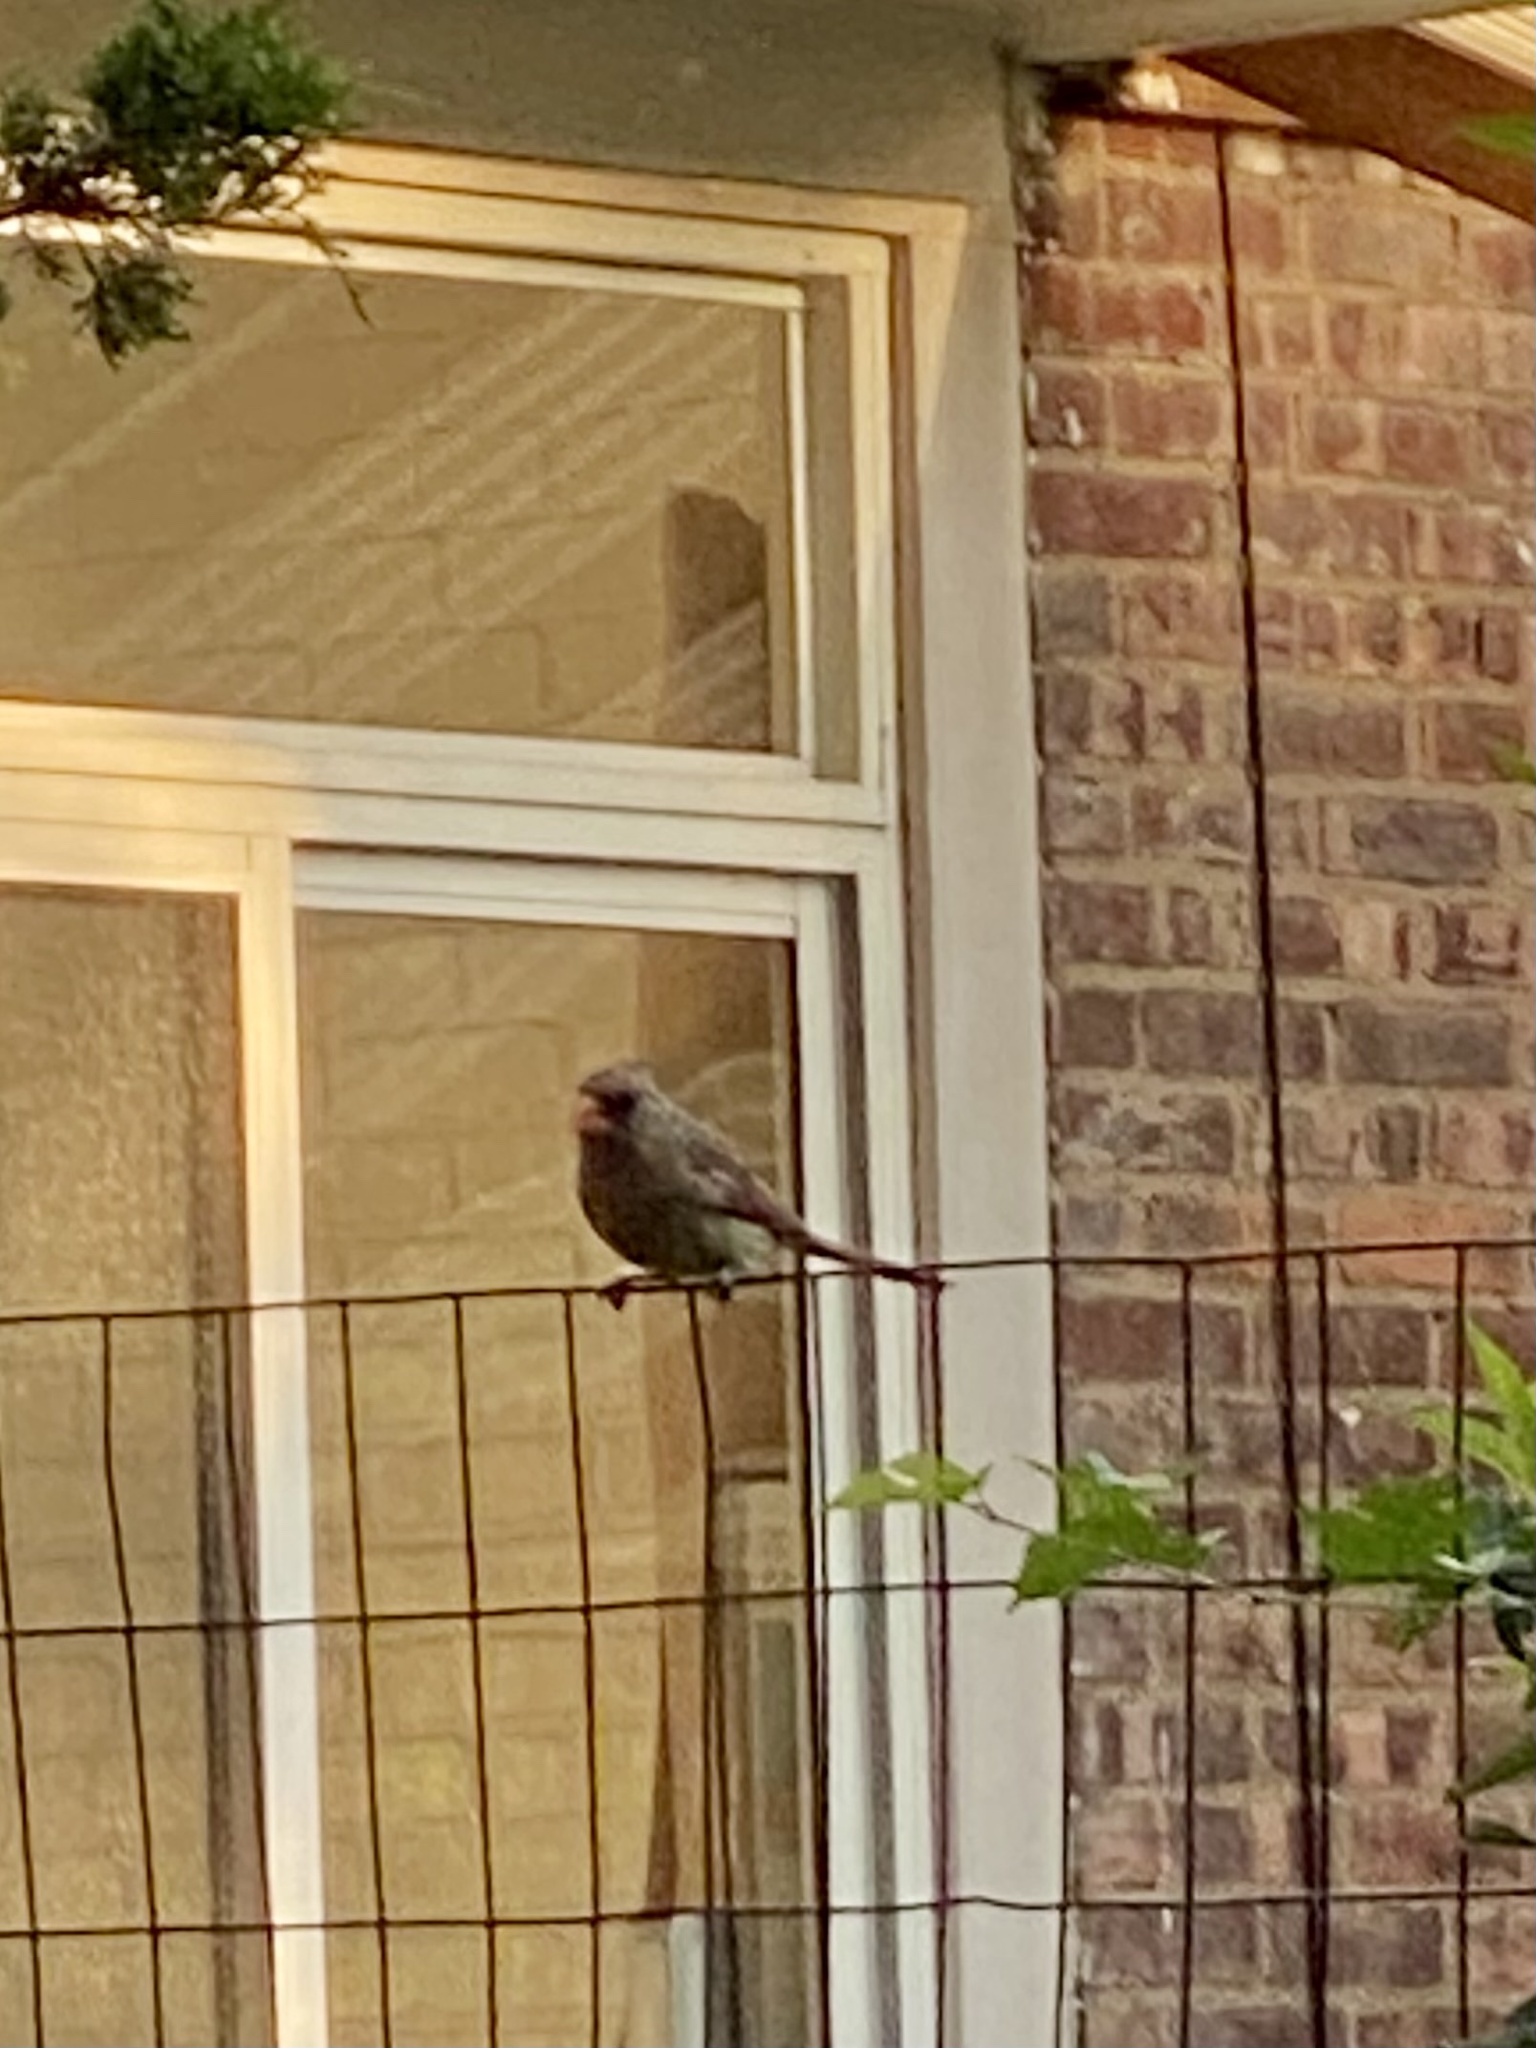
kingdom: Animalia
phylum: Chordata
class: Aves
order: Passeriformes
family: Cardinalidae
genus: Cardinalis
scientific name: Cardinalis cardinalis
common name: Northern cardinal
